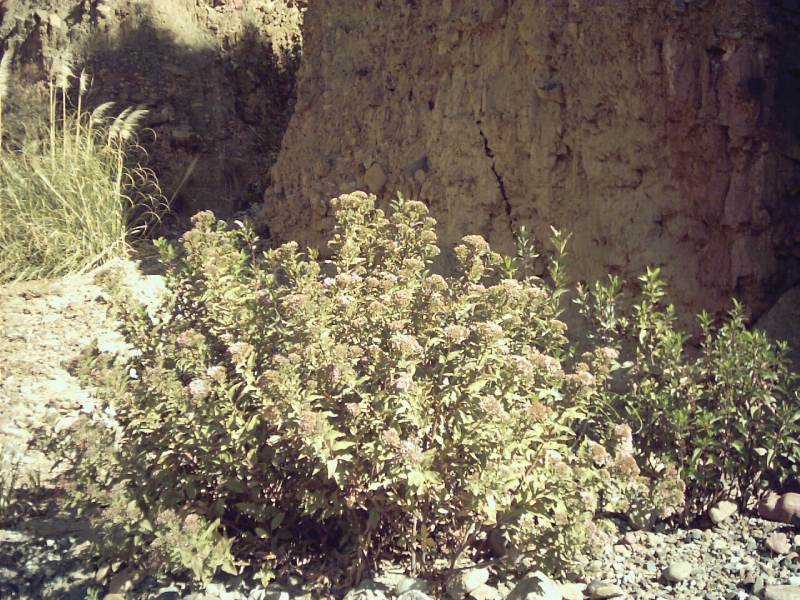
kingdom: Plantae
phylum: Tracheophyta
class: Magnoliopsida
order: Asterales
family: Asteraceae
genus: Tessaria
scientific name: Tessaria fastigiata
